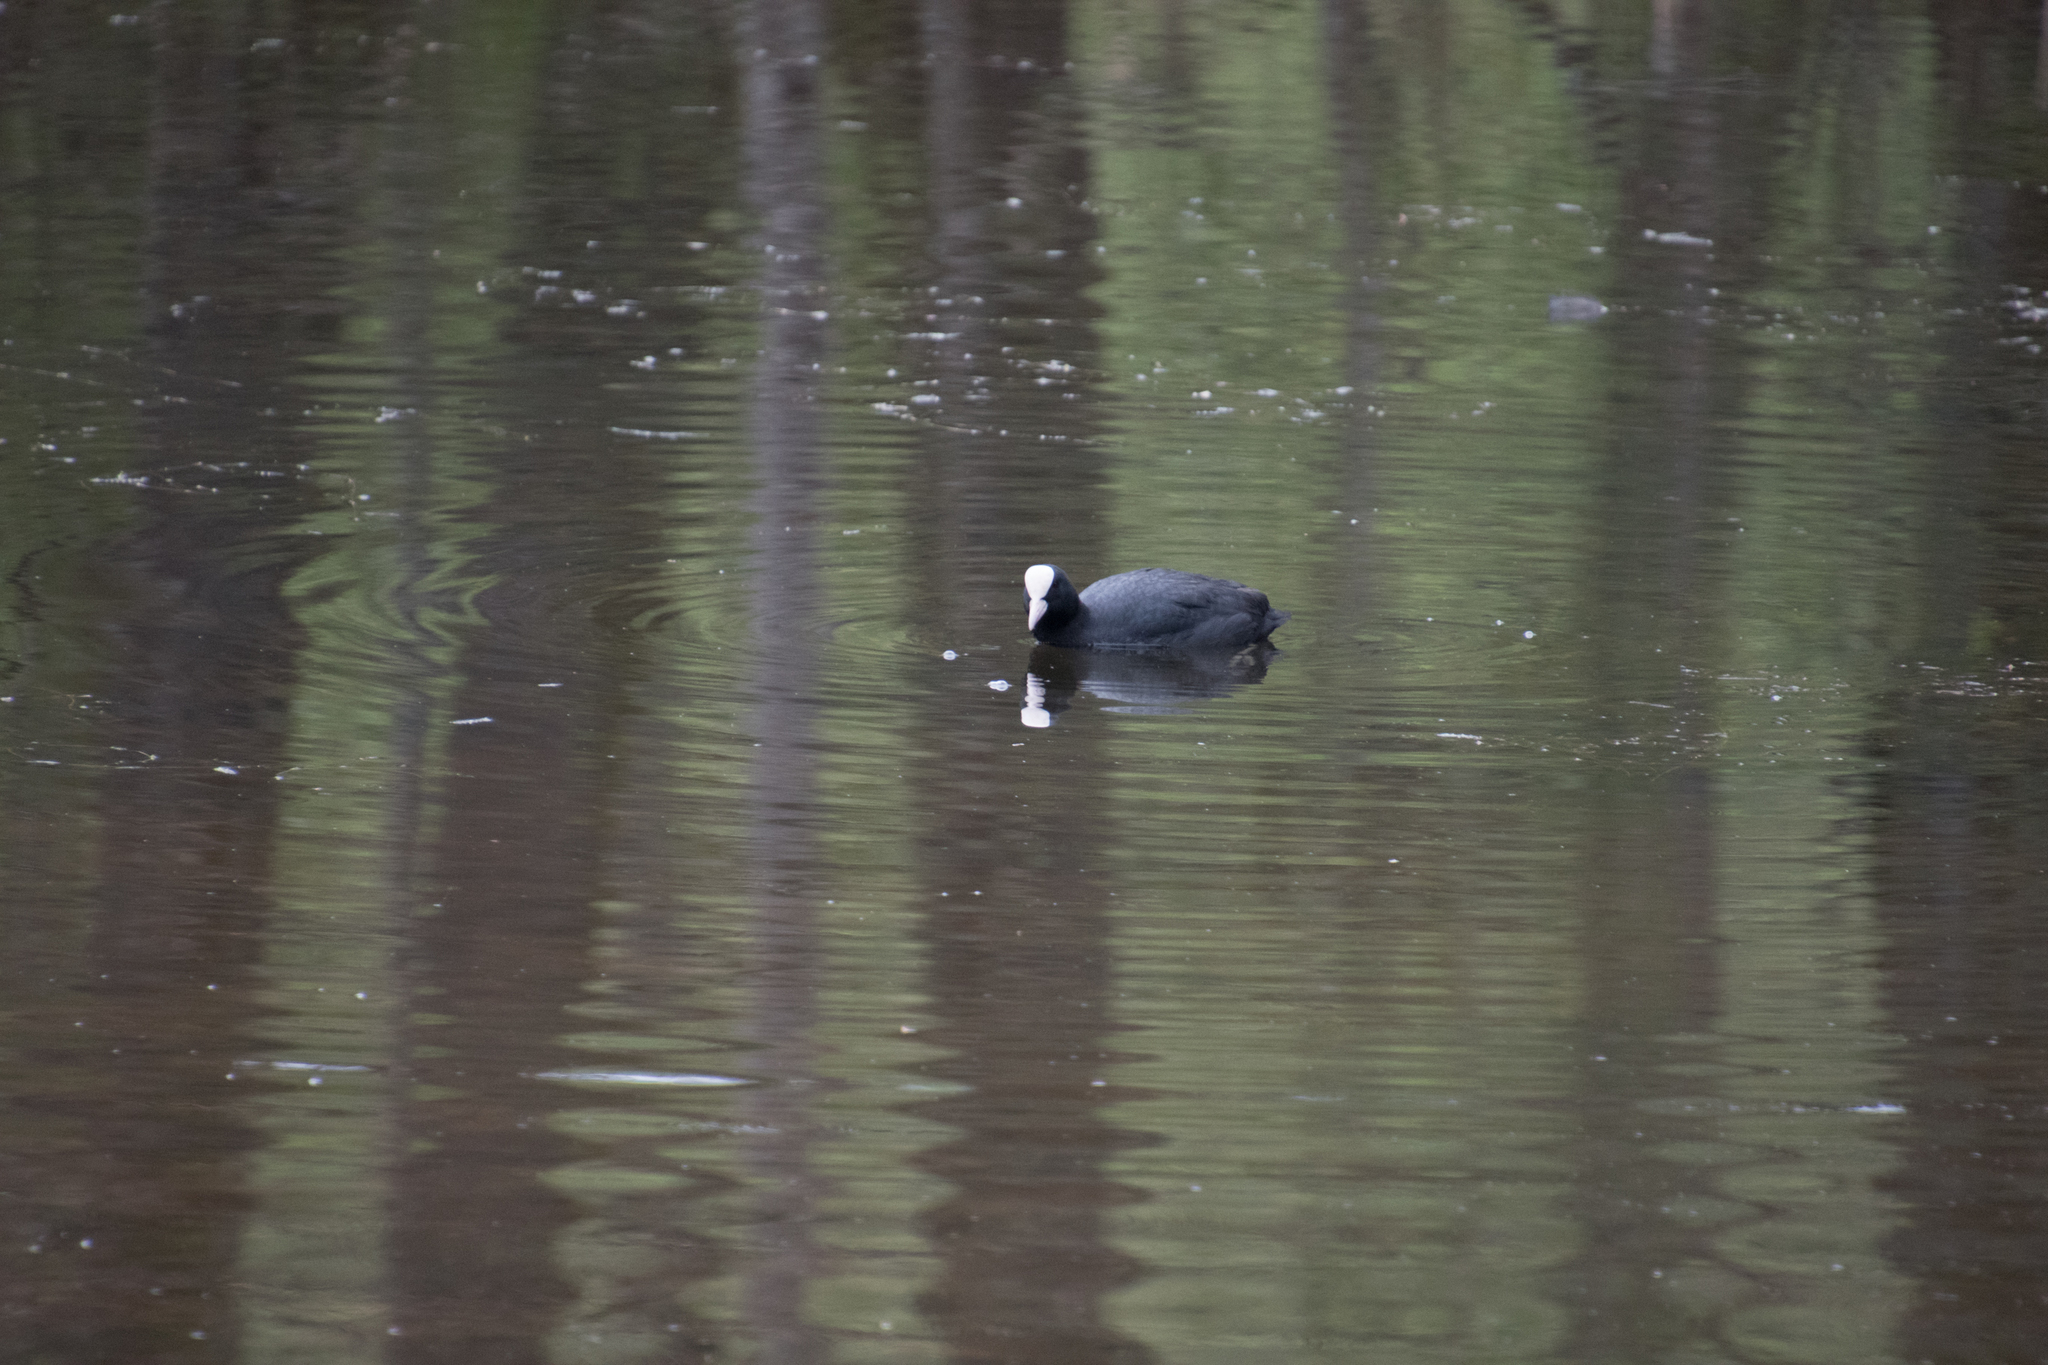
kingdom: Animalia
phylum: Chordata
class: Aves
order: Gruiformes
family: Rallidae
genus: Fulica
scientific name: Fulica atra
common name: Eurasian coot
